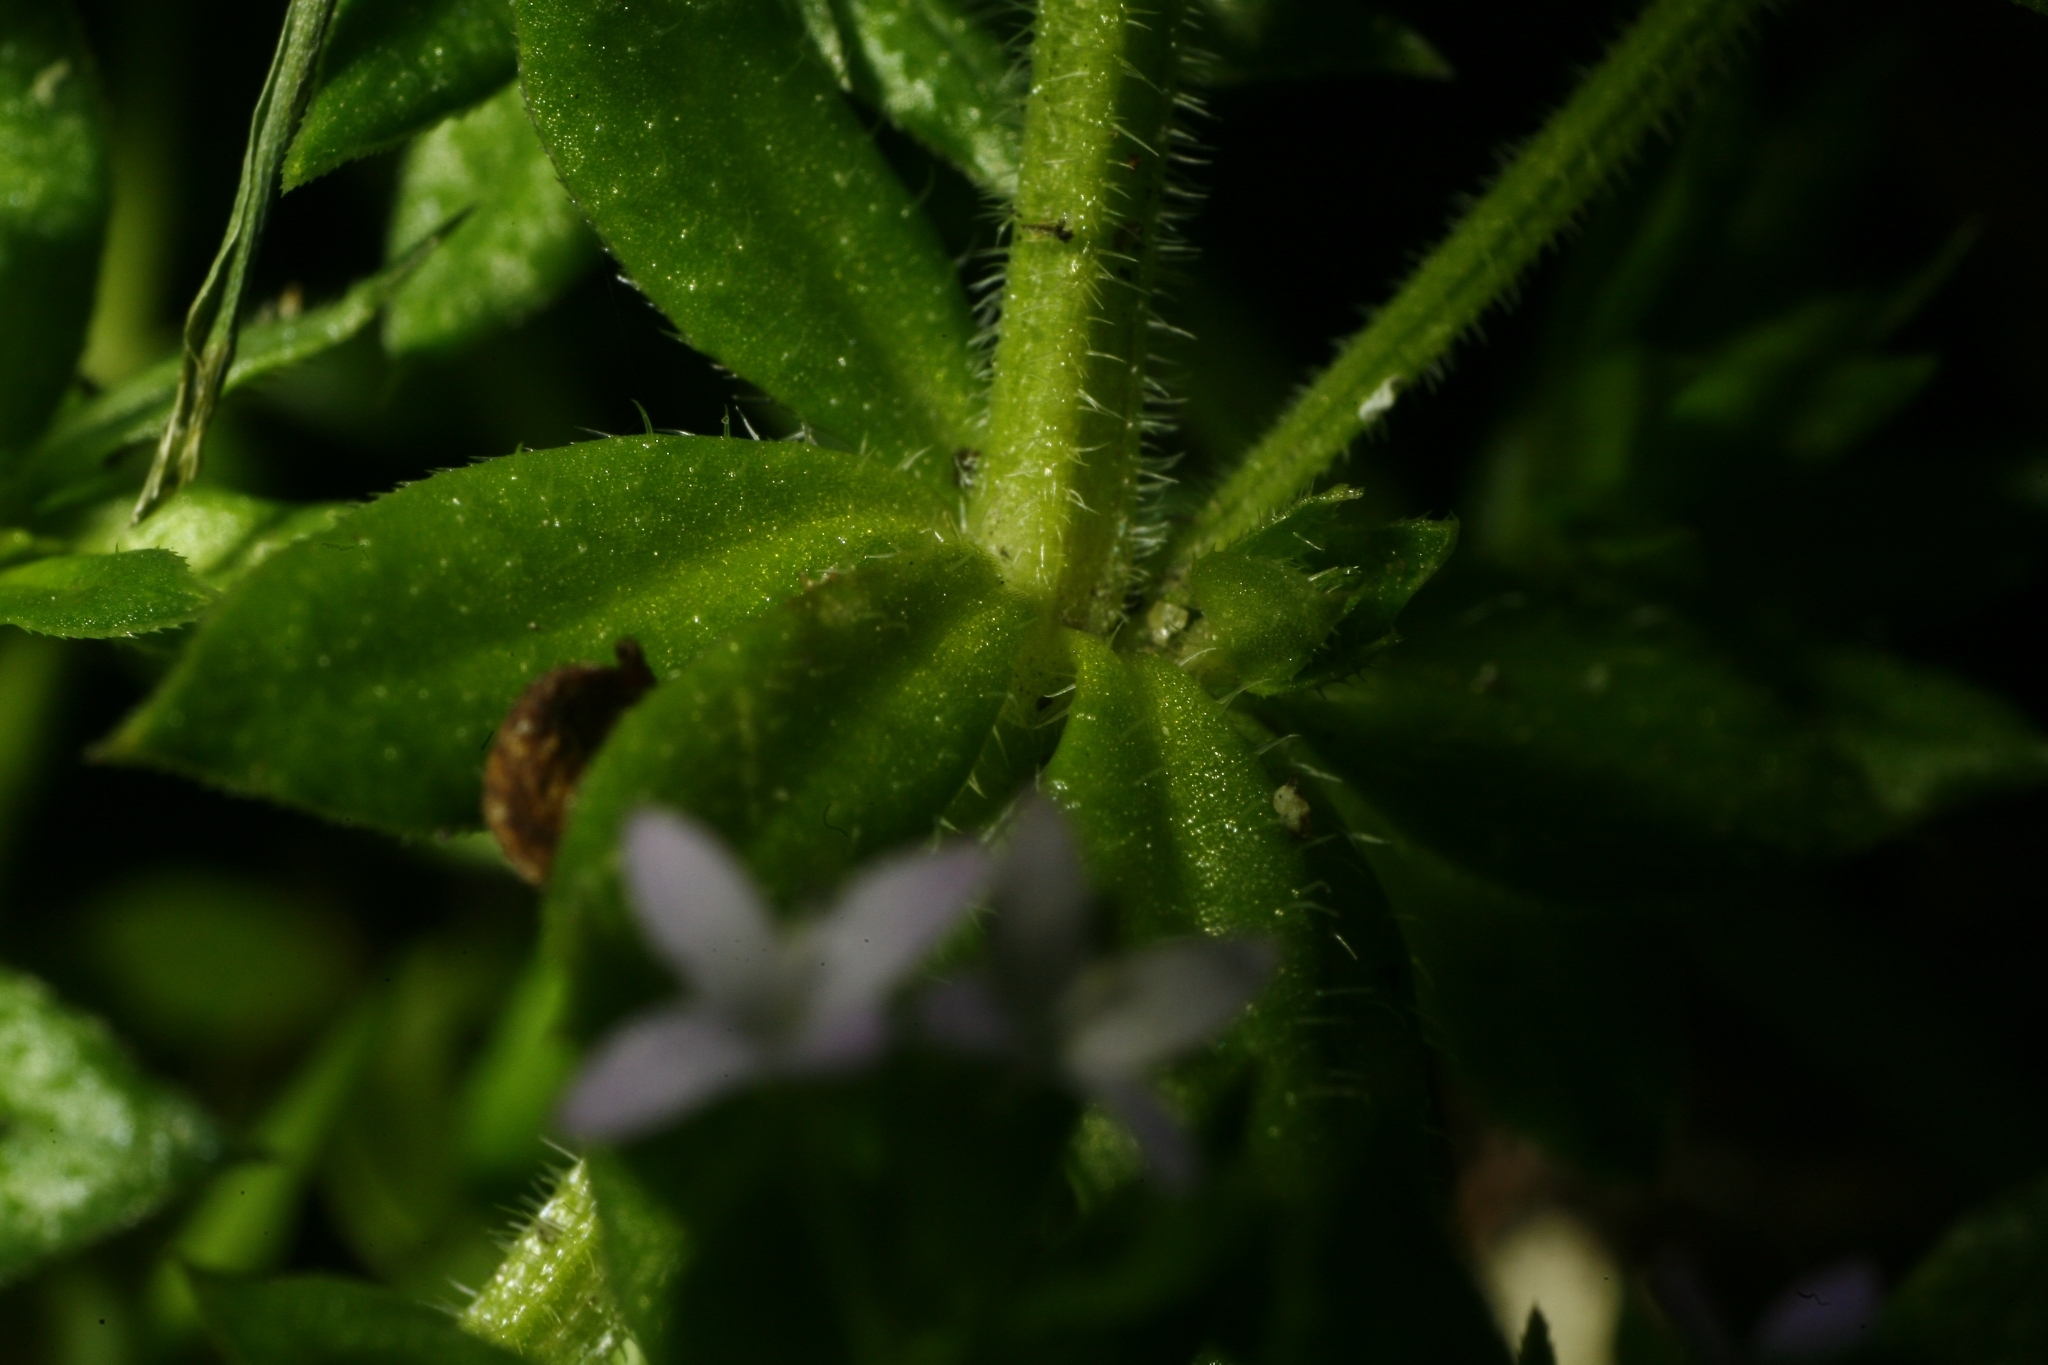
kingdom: Plantae
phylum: Tracheophyta
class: Magnoliopsida
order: Gentianales
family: Rubiaceae
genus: Sherardia
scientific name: Sherardia arvensis
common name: Field madder
